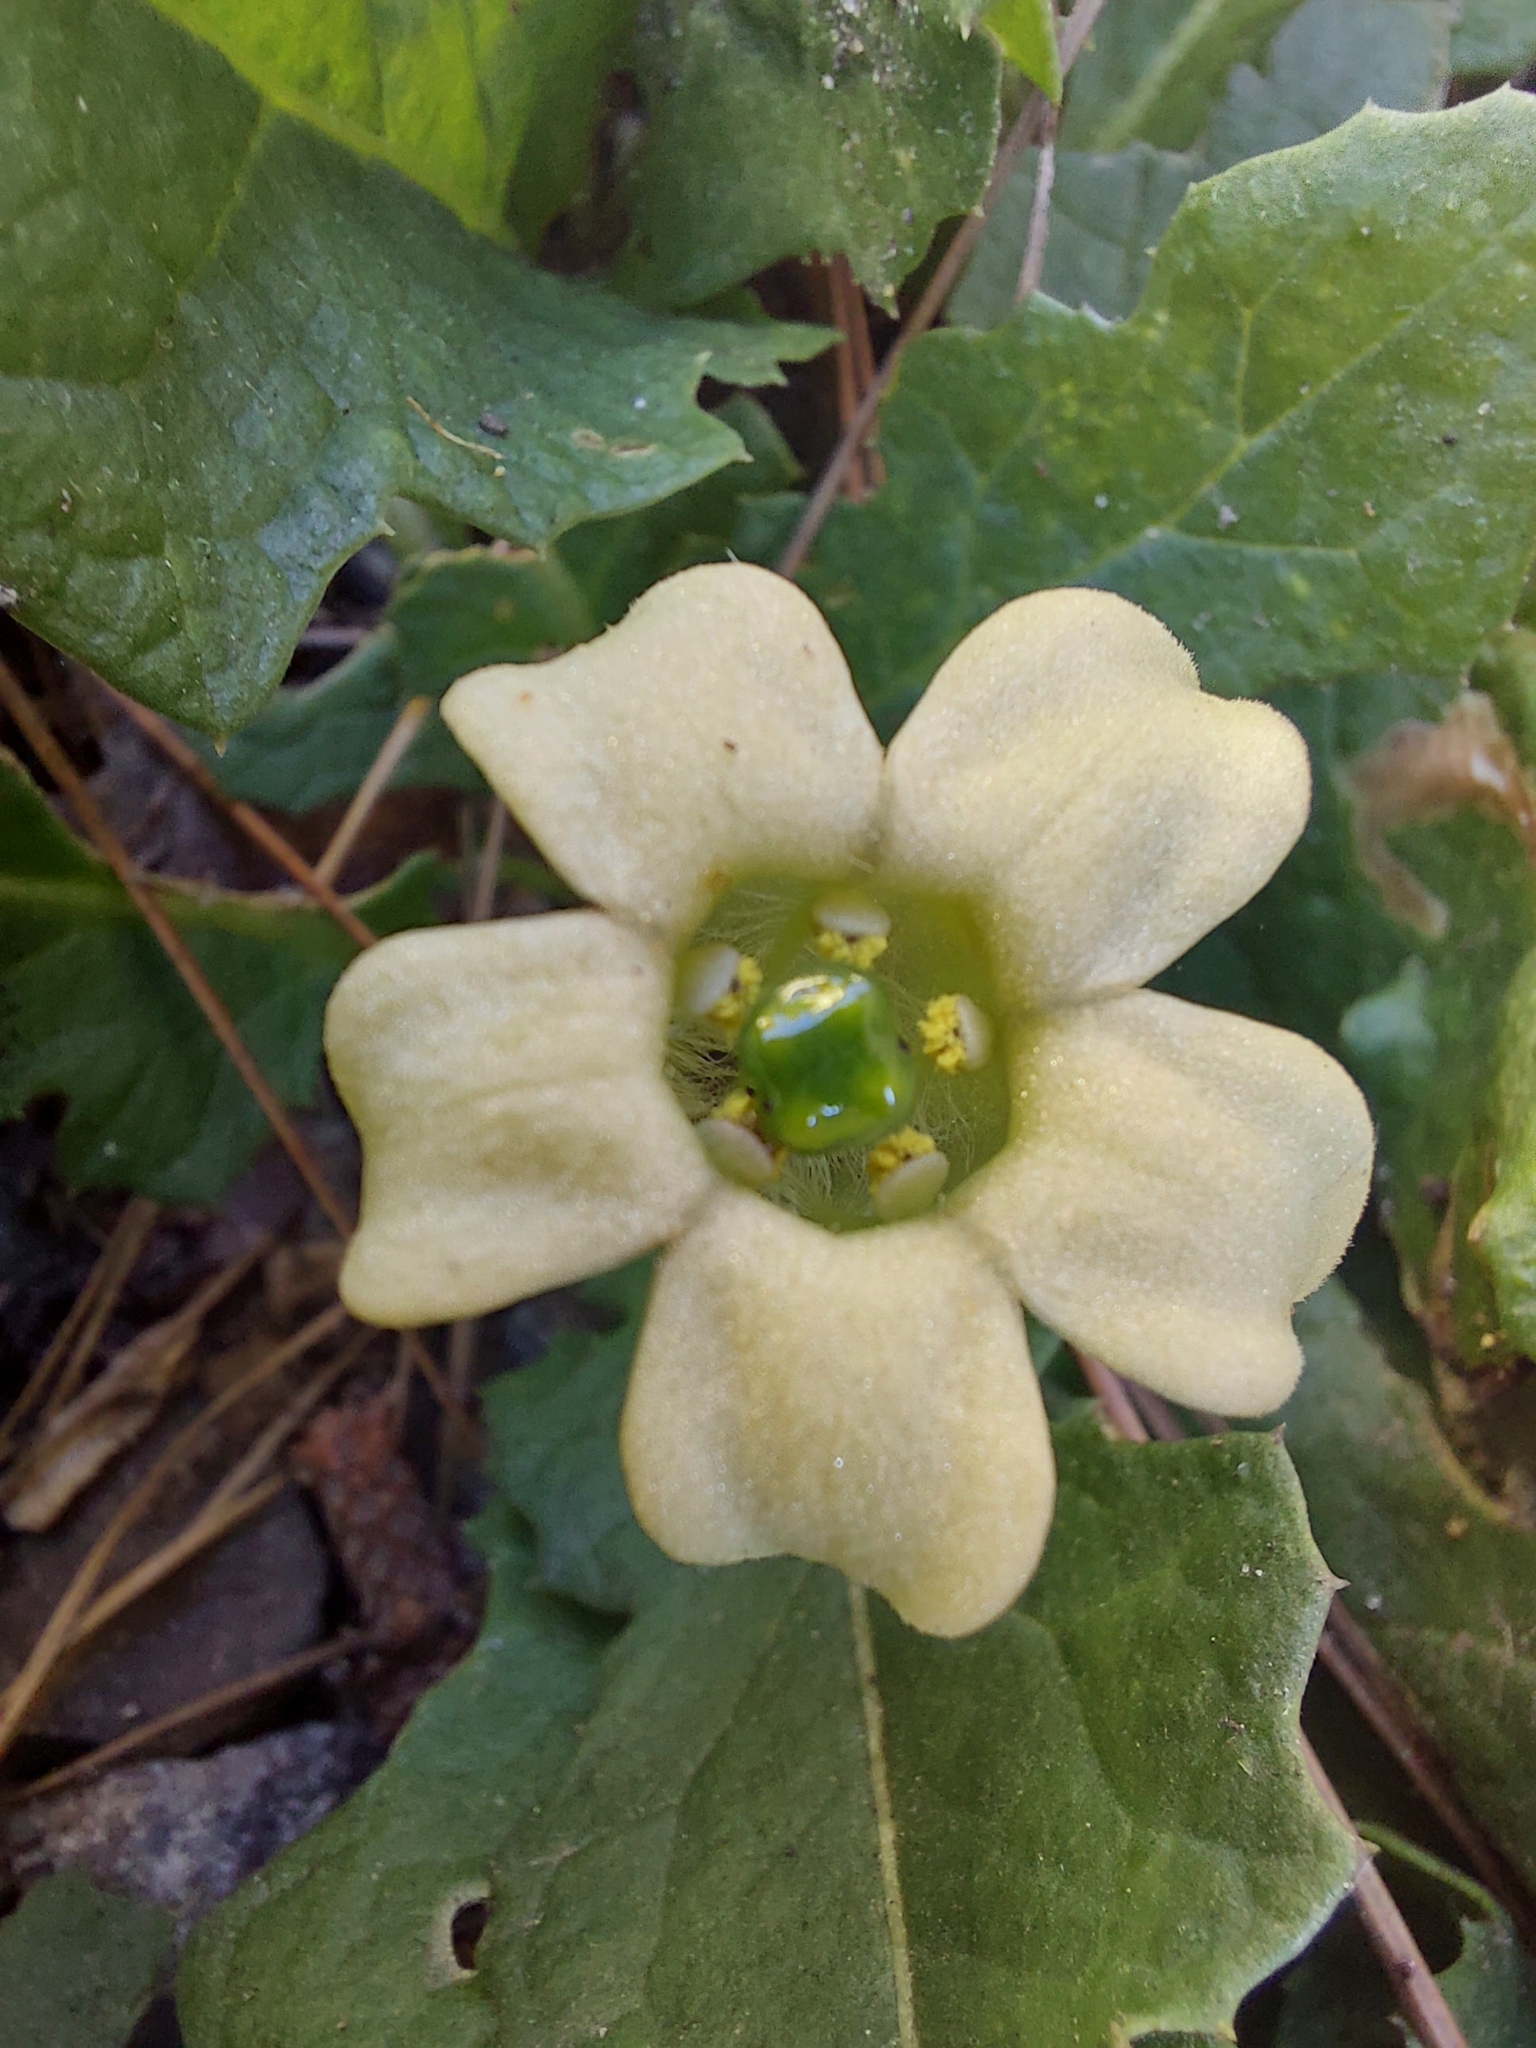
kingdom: Plantae
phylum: Tracheophyta
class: Magnoliopsida
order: Solanales
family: Solanaceae
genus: Jaborosa
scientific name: Jaborosa runcinata
